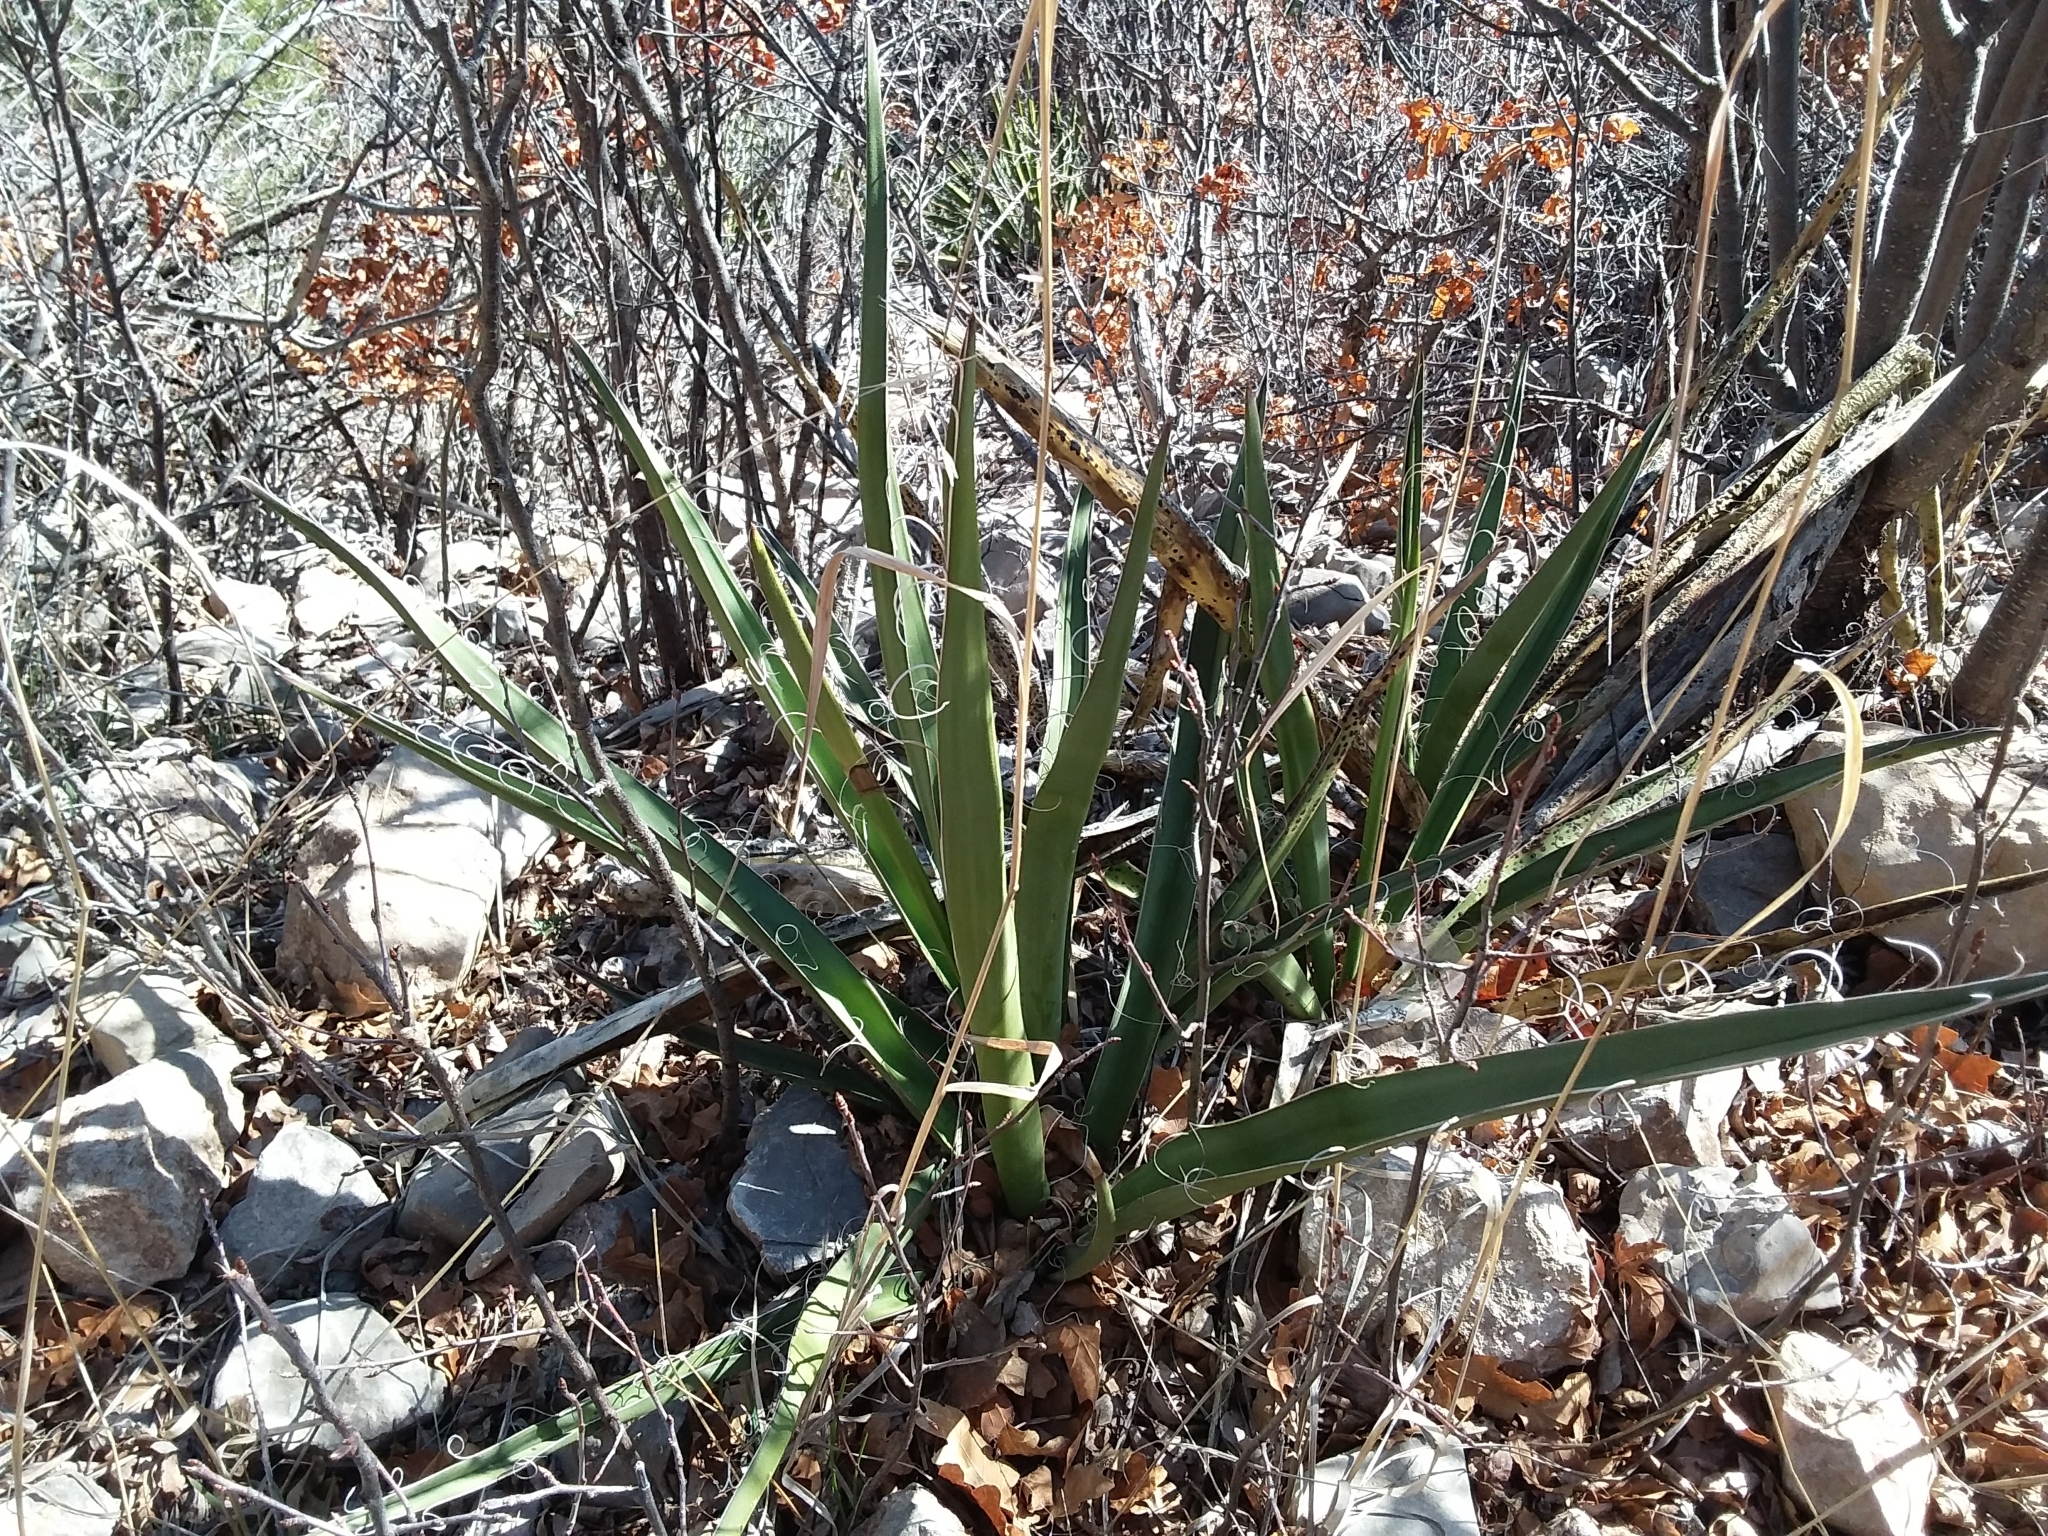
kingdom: Plantae
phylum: Tracheophyta
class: Liliopsida
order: Asparagales
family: Asparagaceae
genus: Yucca
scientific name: Yucca baccata
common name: Banana yucca
